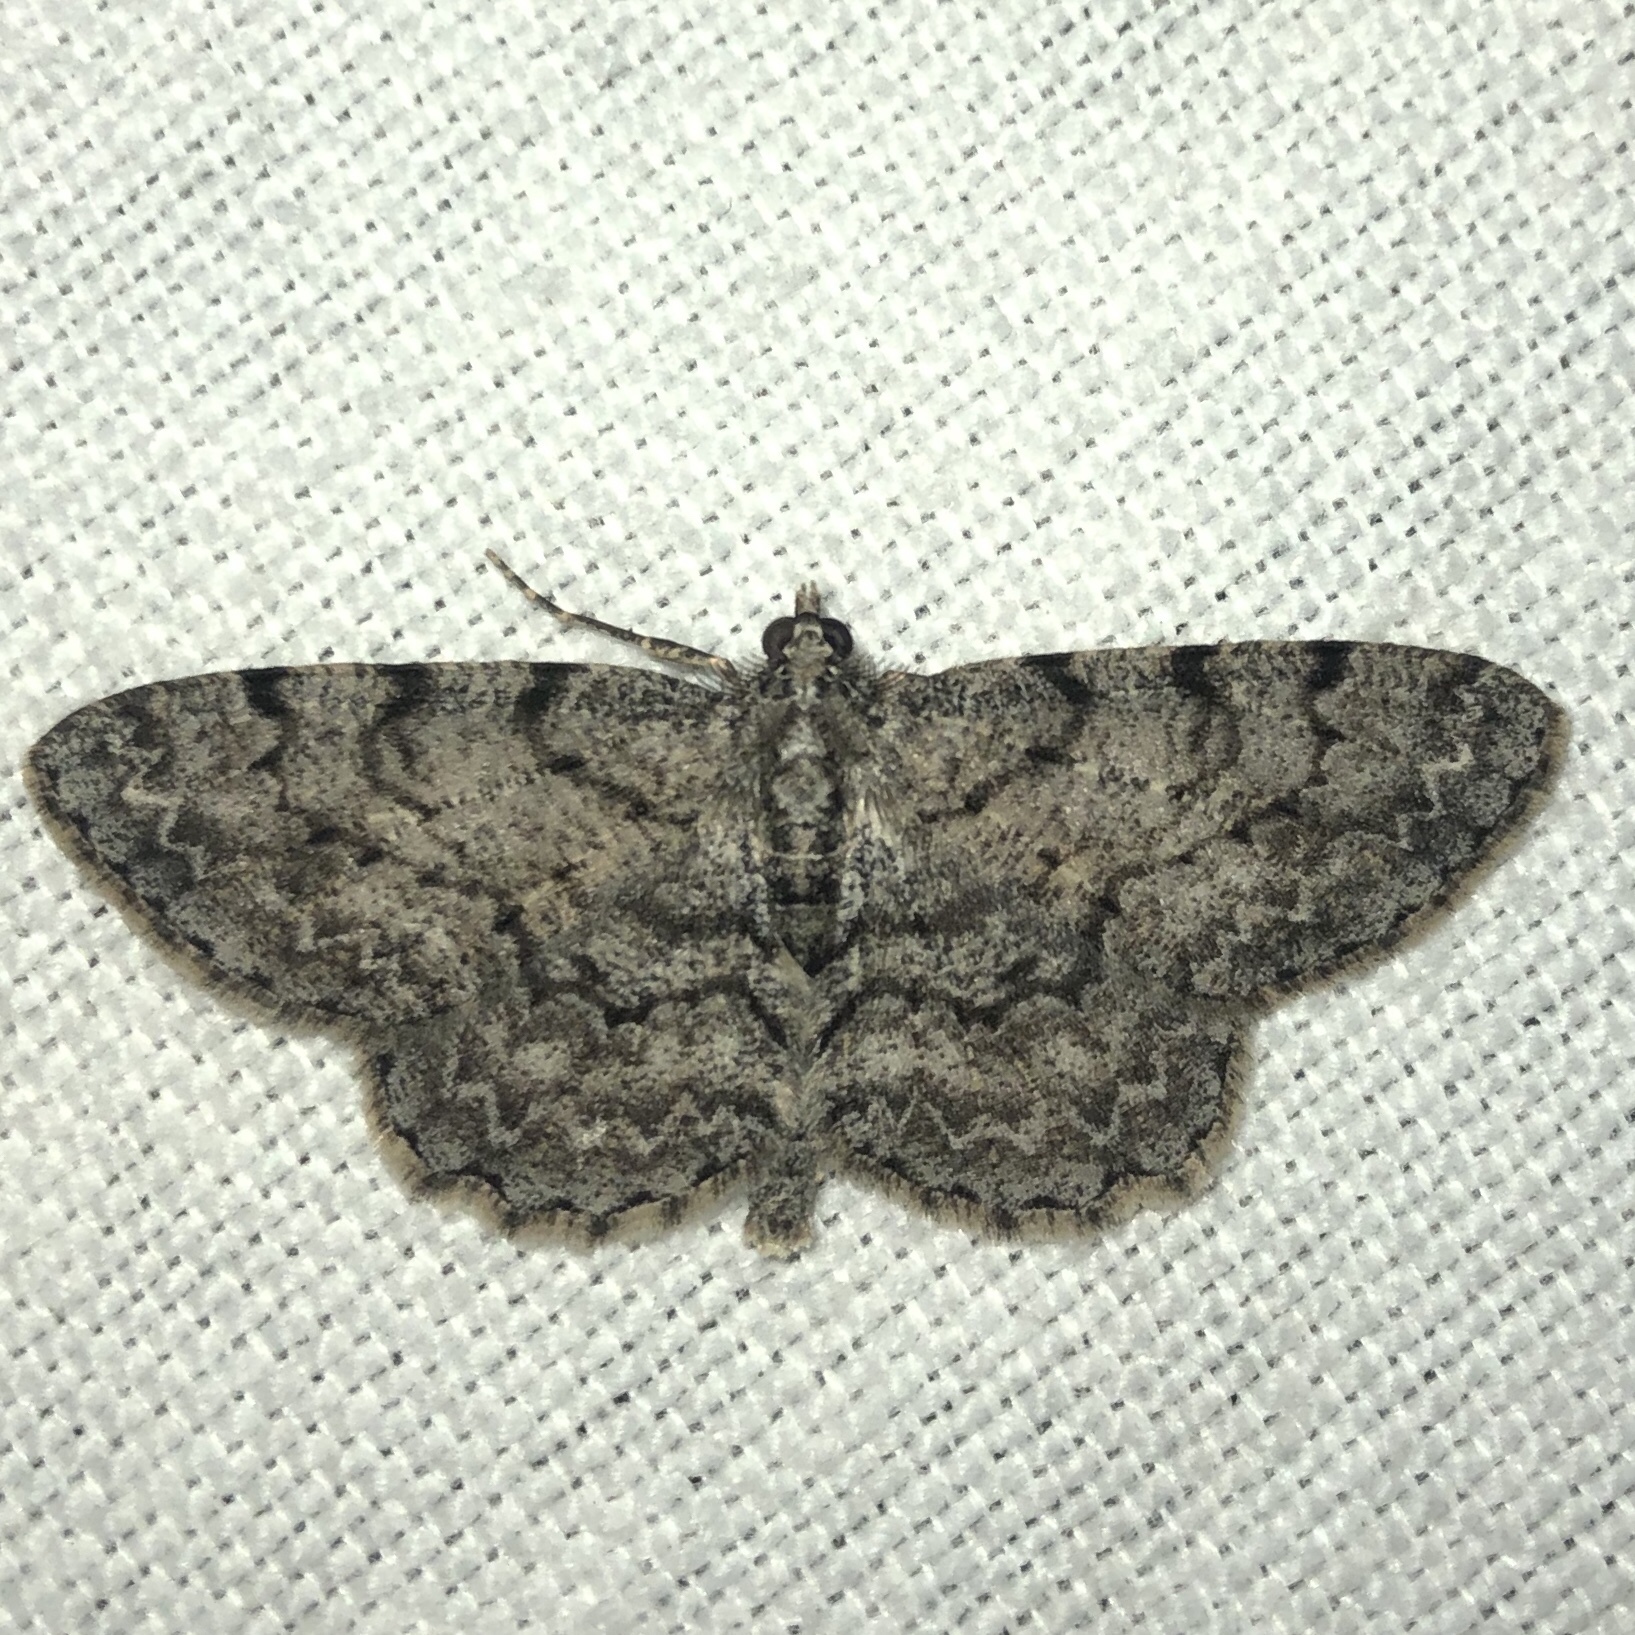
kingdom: Animalia
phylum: Arthropoda
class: Insecta
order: Lepidoptera
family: Geometridae
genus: Protoboarmia
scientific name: Protoboarmia porcelaria
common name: Porcelain gray
